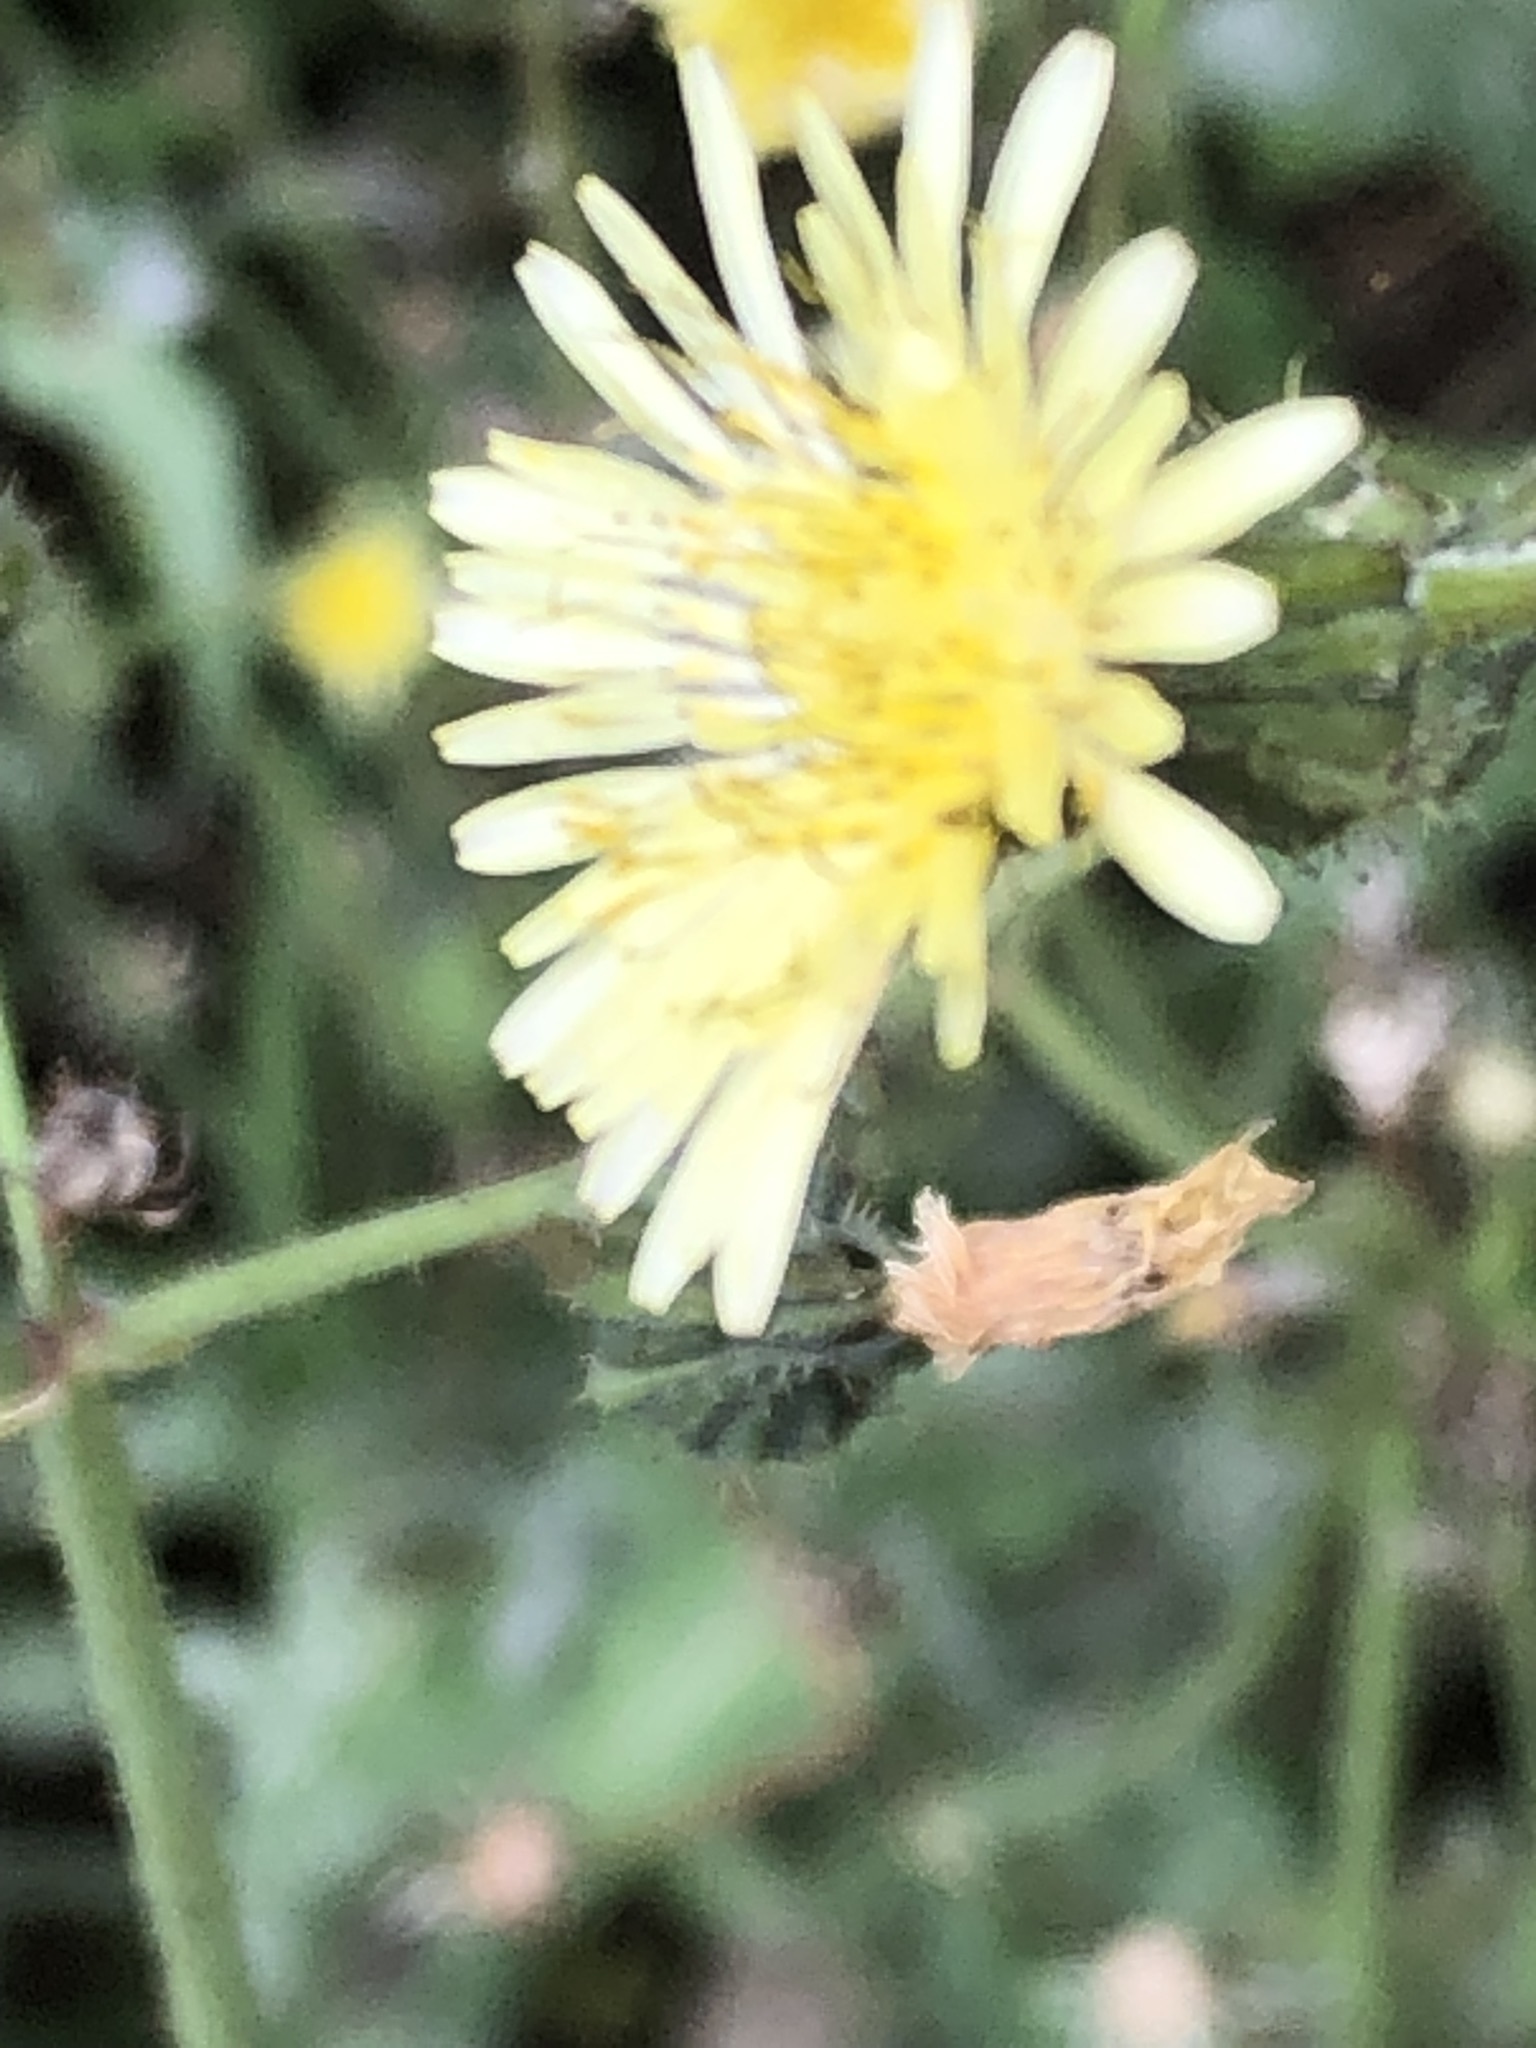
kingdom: Plantae
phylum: Tracheophyta
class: Magnoliopsida
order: Asterales
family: Asteraceae
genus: Sonchus
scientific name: Sonchus oleraceus
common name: Common sowthistle
